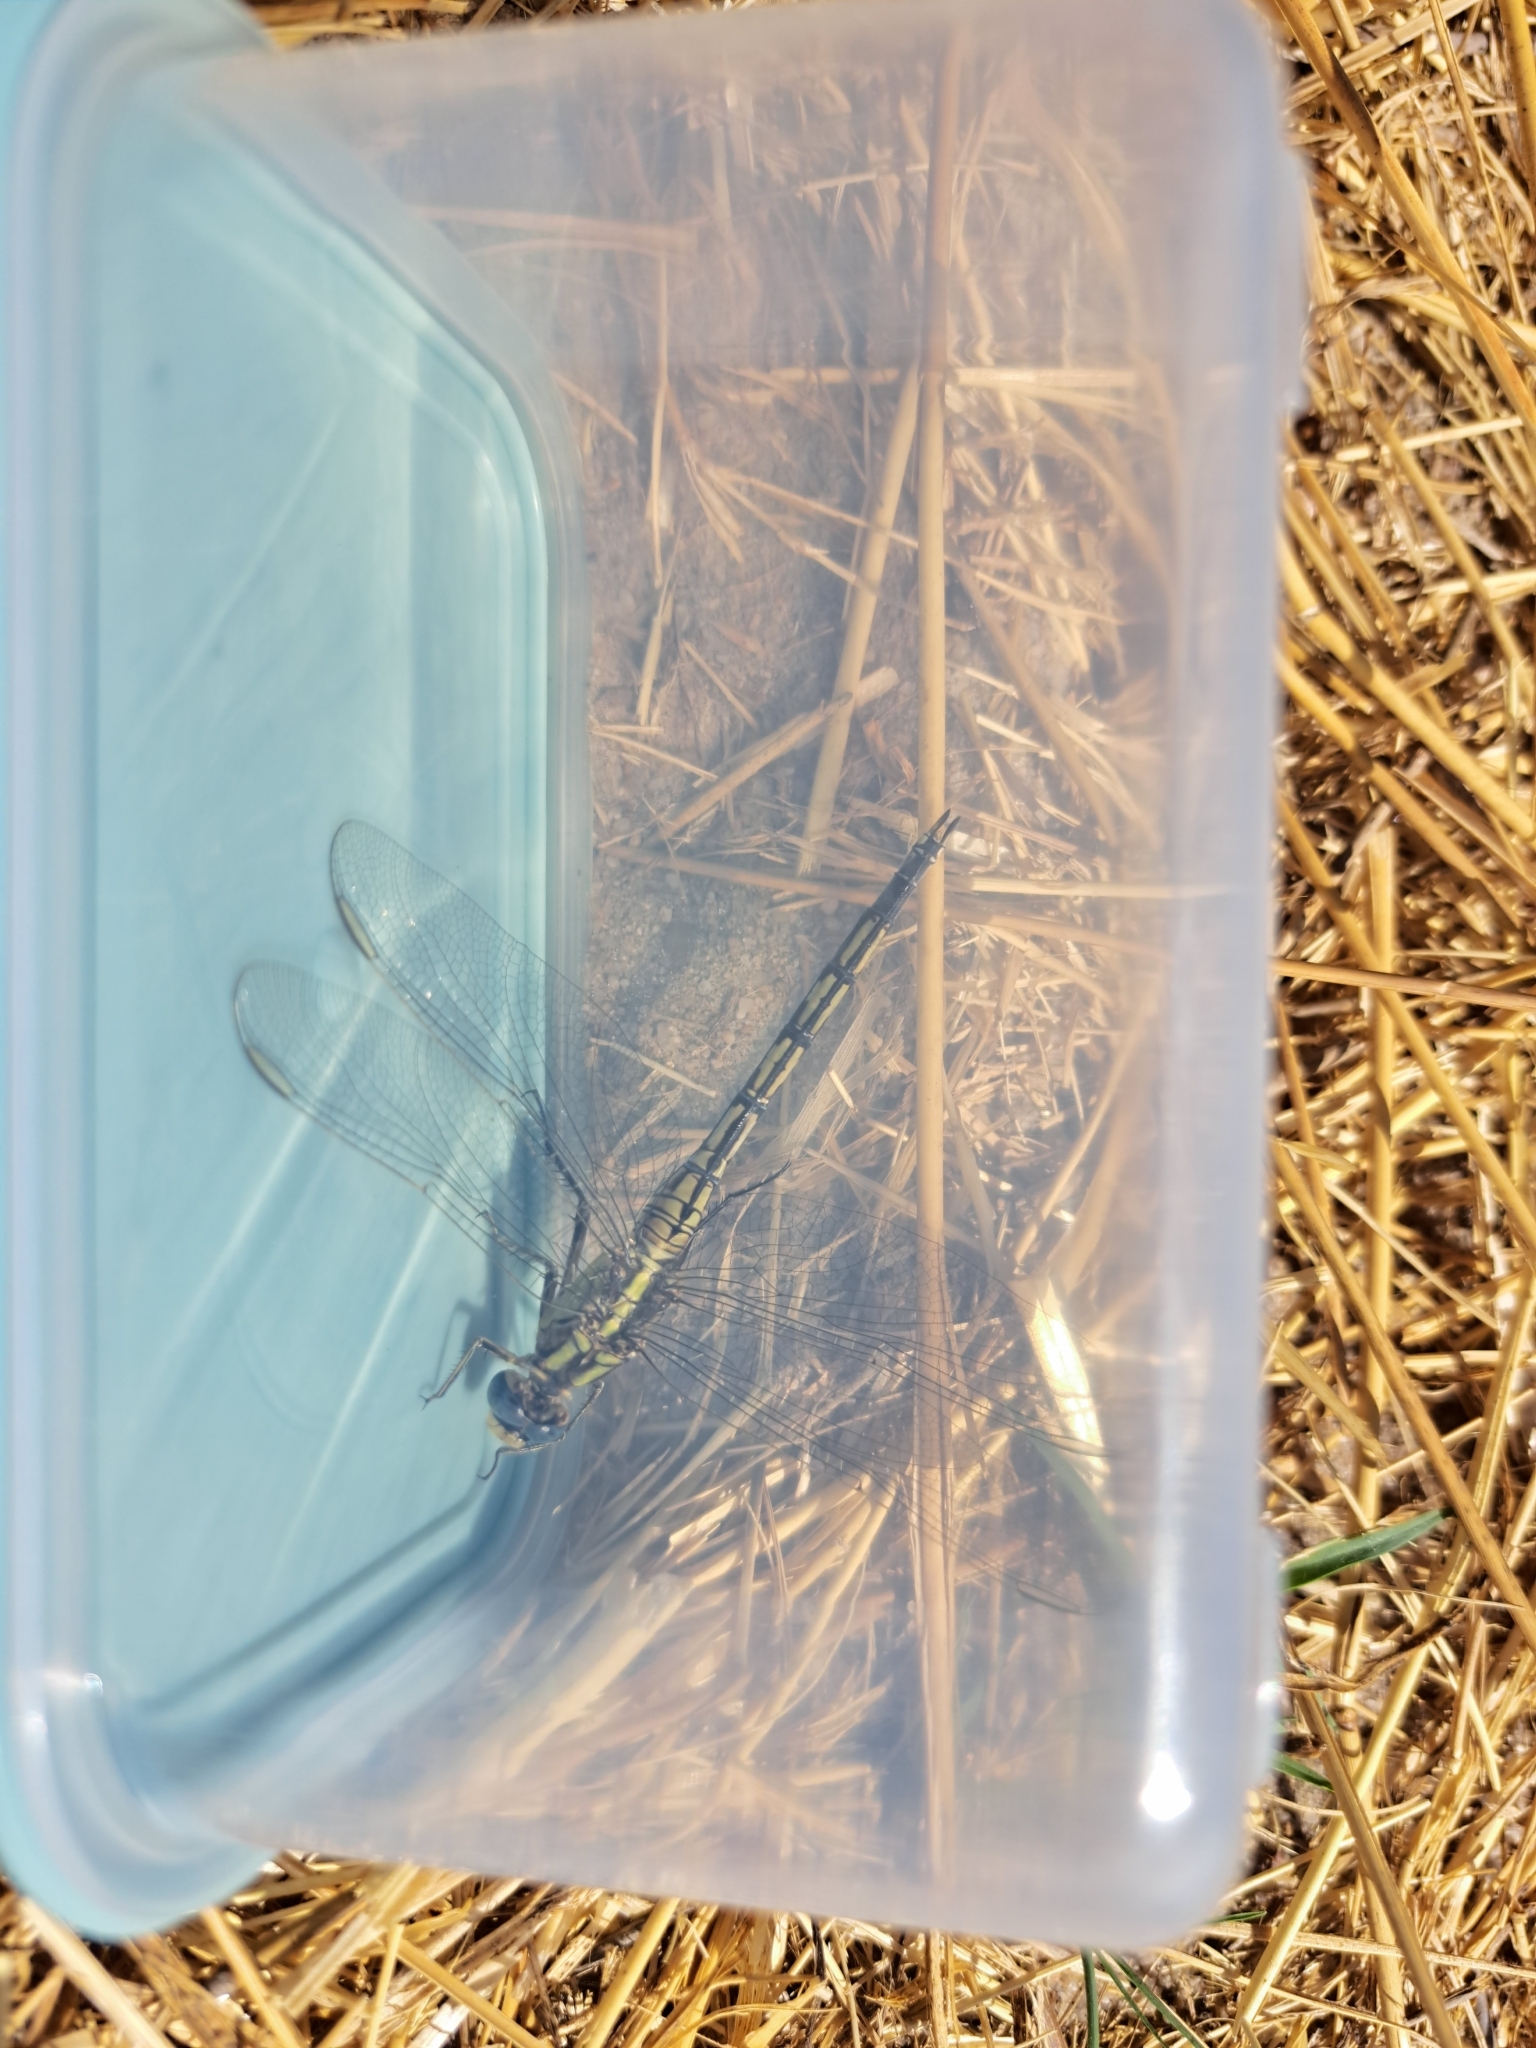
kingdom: Animalia
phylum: Arthropoda
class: Insecta
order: Odonata
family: Libellulidae
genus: Orthetrum
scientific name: Orthetrum trinacria
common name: Long skimmer
